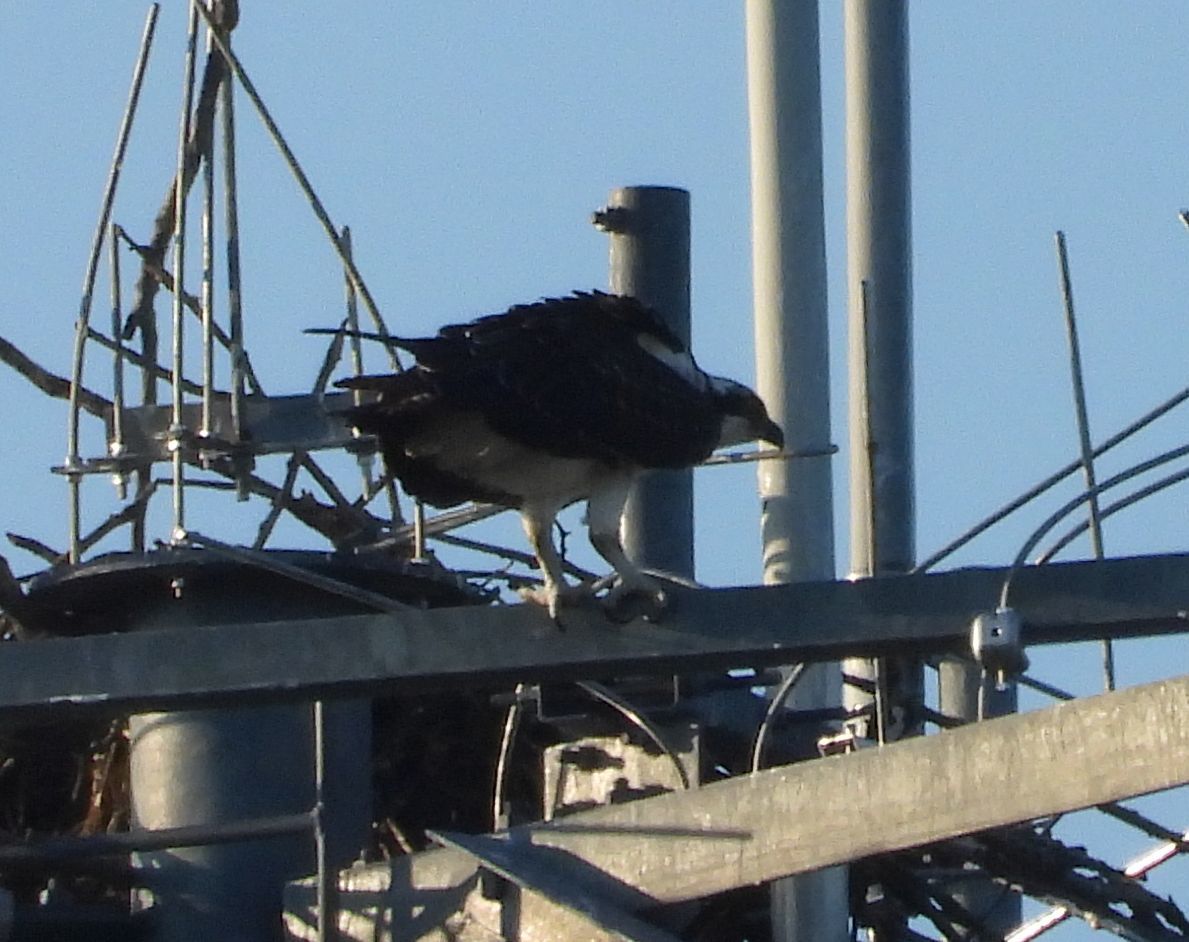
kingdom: Animalia
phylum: Chordata
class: Aves
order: Accipitriformes
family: Pandionidae
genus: Pandion
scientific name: Pandion haliaetus
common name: Osprey
